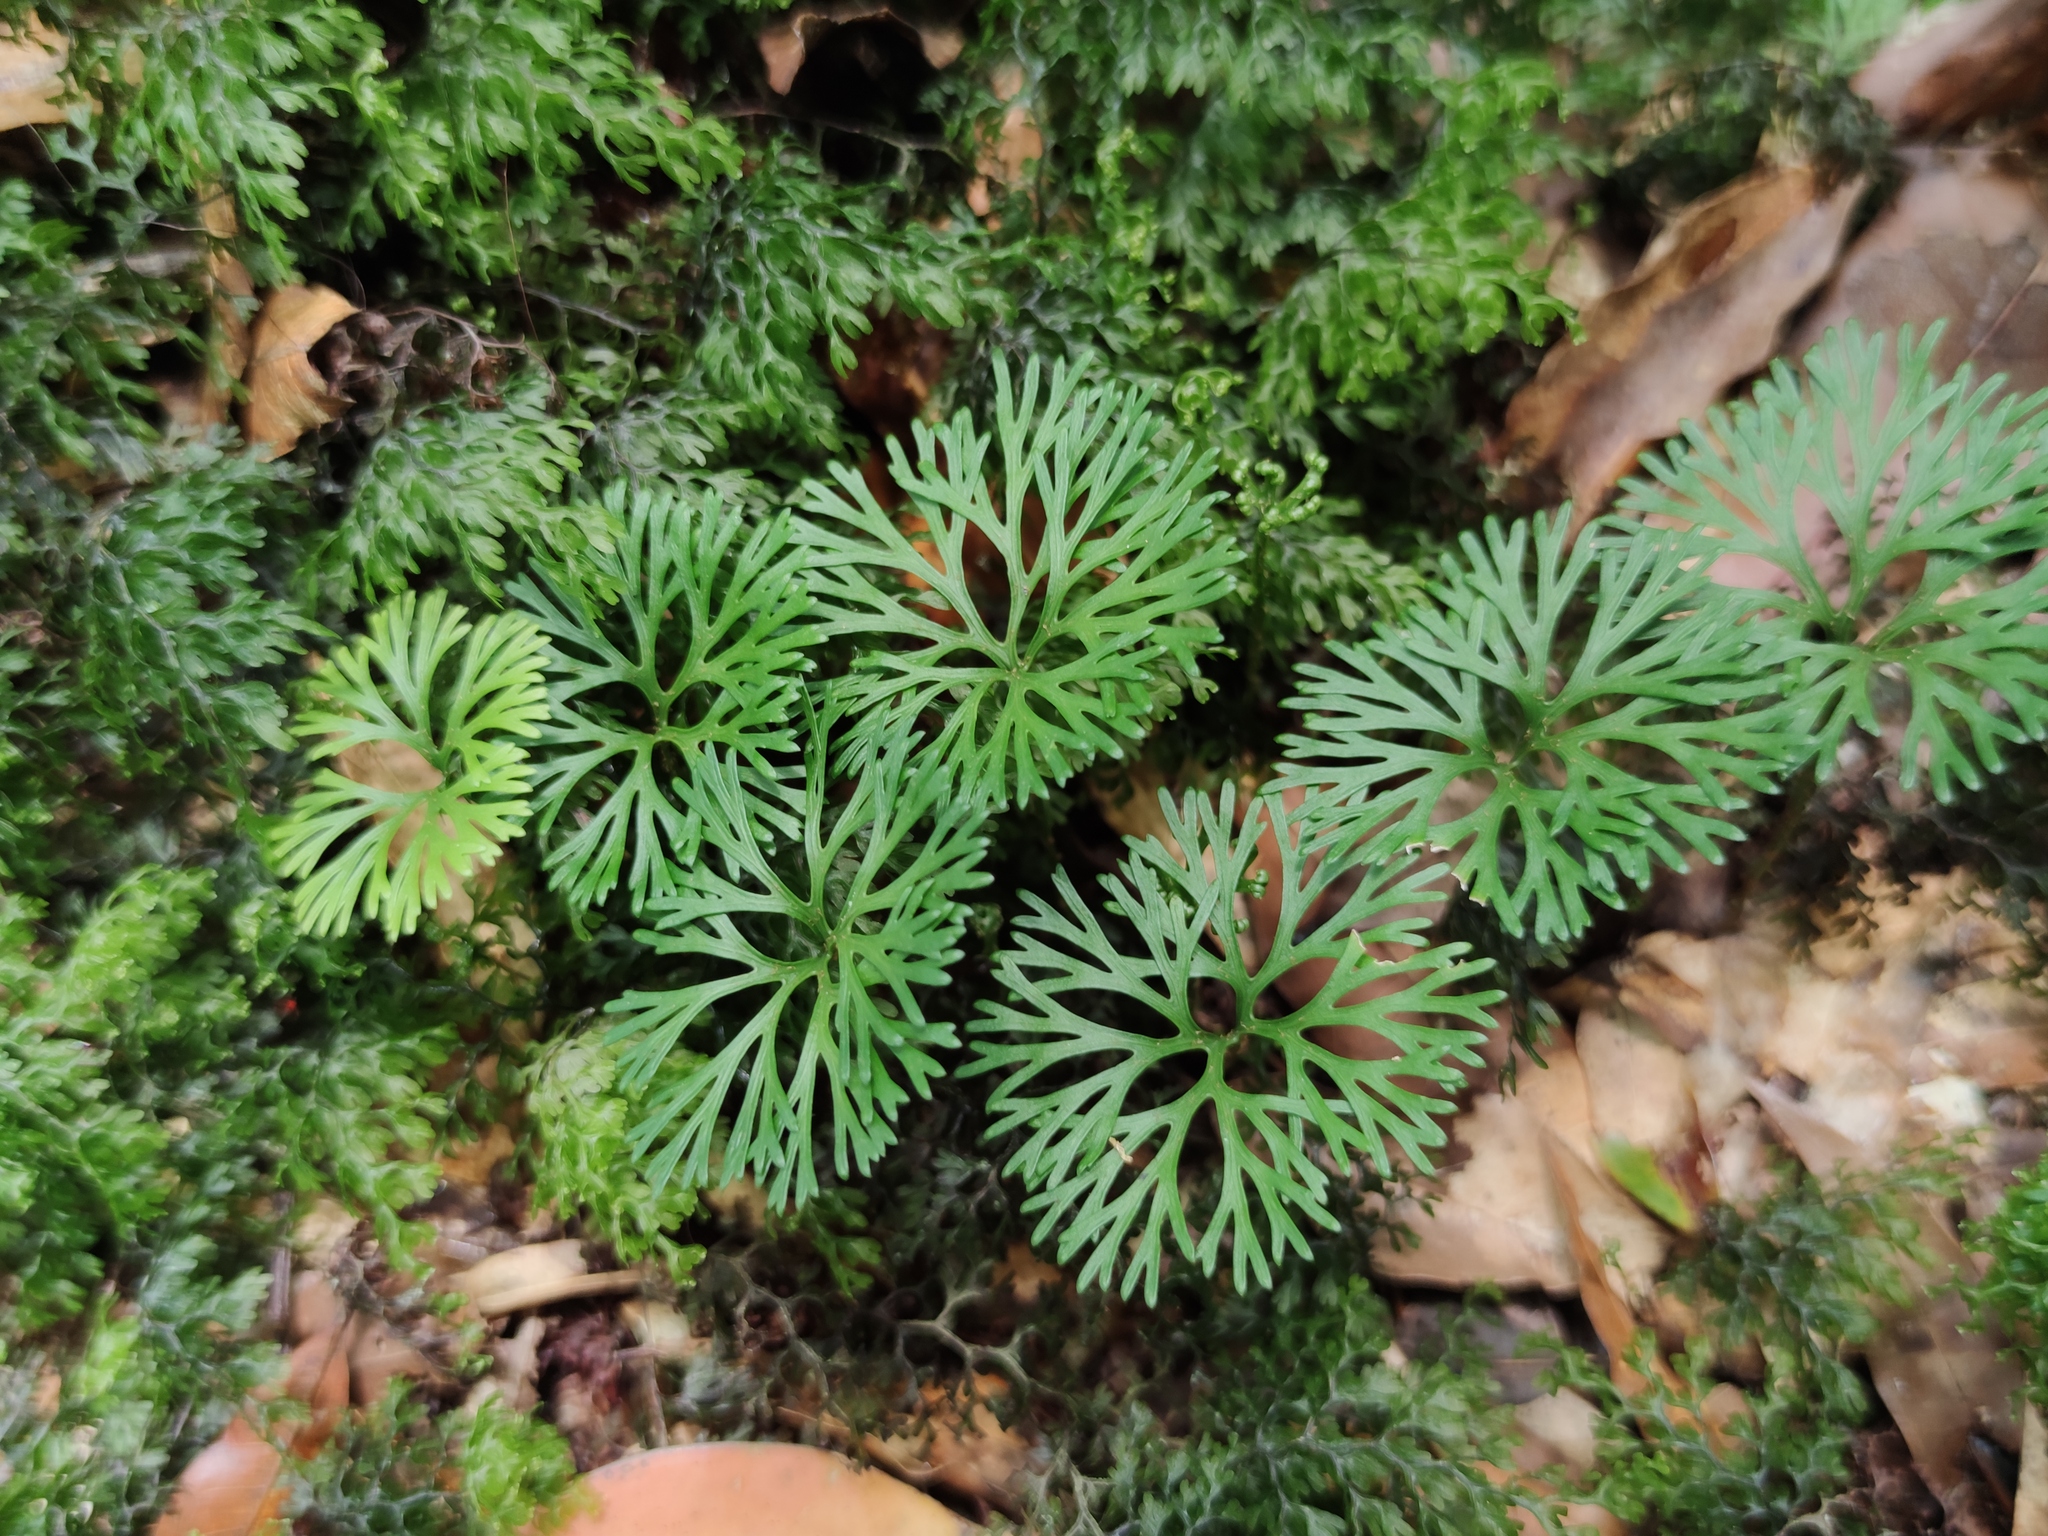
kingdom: Plantae
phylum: Tracheophyta
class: Polypodiopsida
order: Polypodiales
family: Dryopteridaceae
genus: Elaphoglossum
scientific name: Elaphoglossum peltatum
